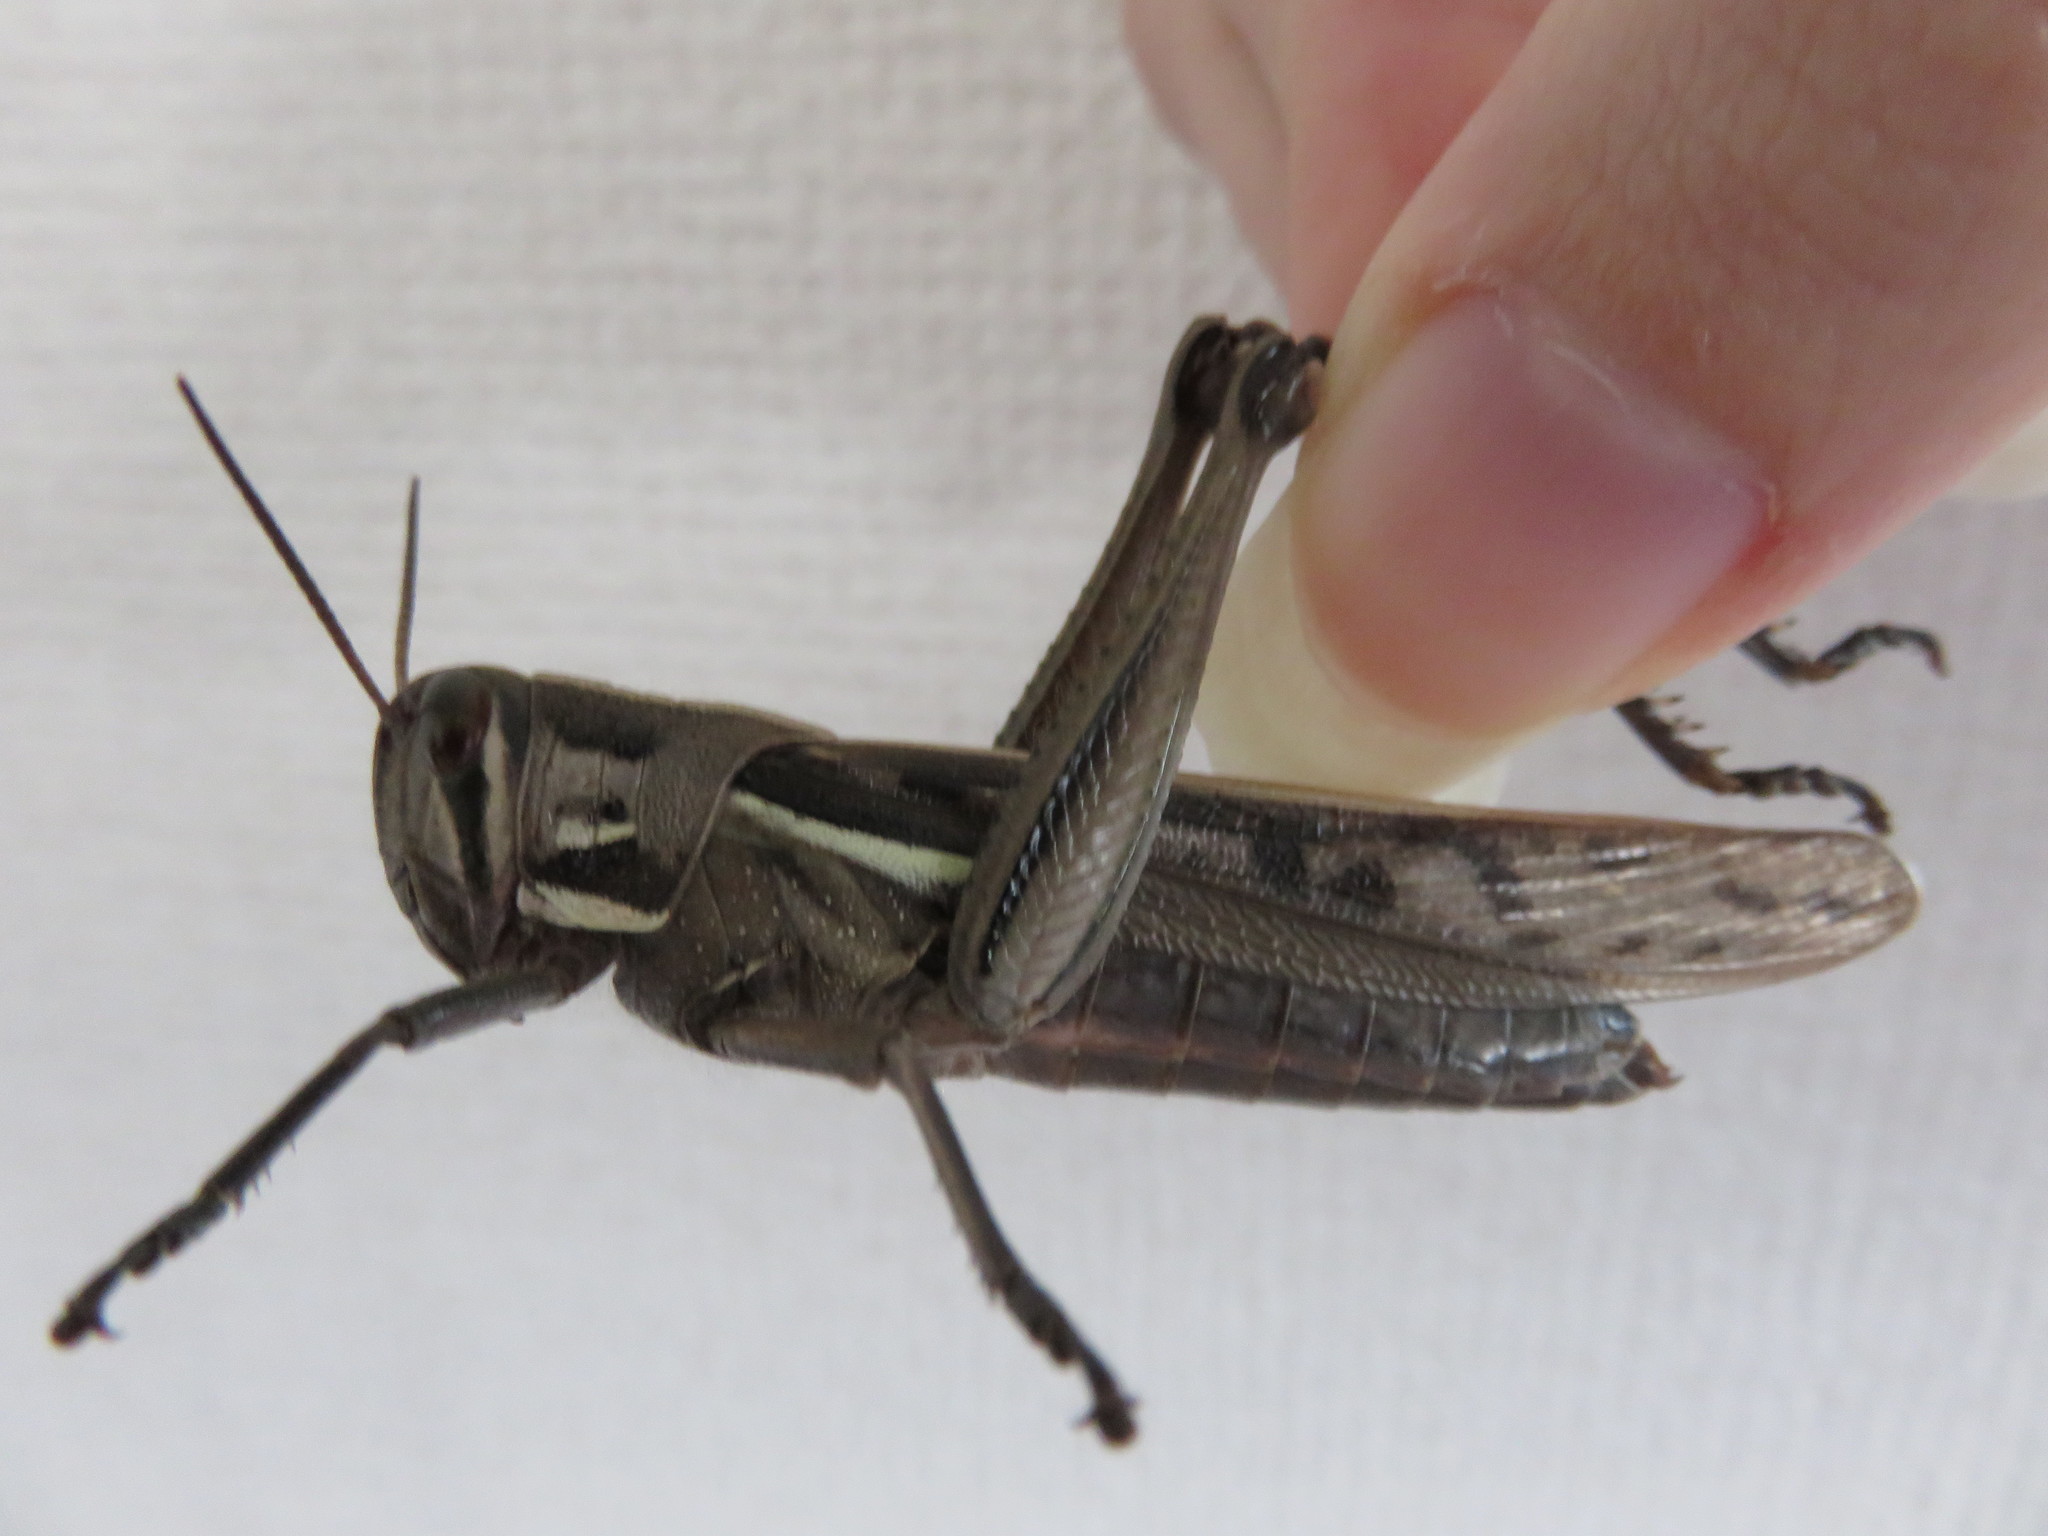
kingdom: Animalia
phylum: Arthropoda
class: Insecta
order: Orthoptera
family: Acrididae
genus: Patanga
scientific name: Patanga japonica
